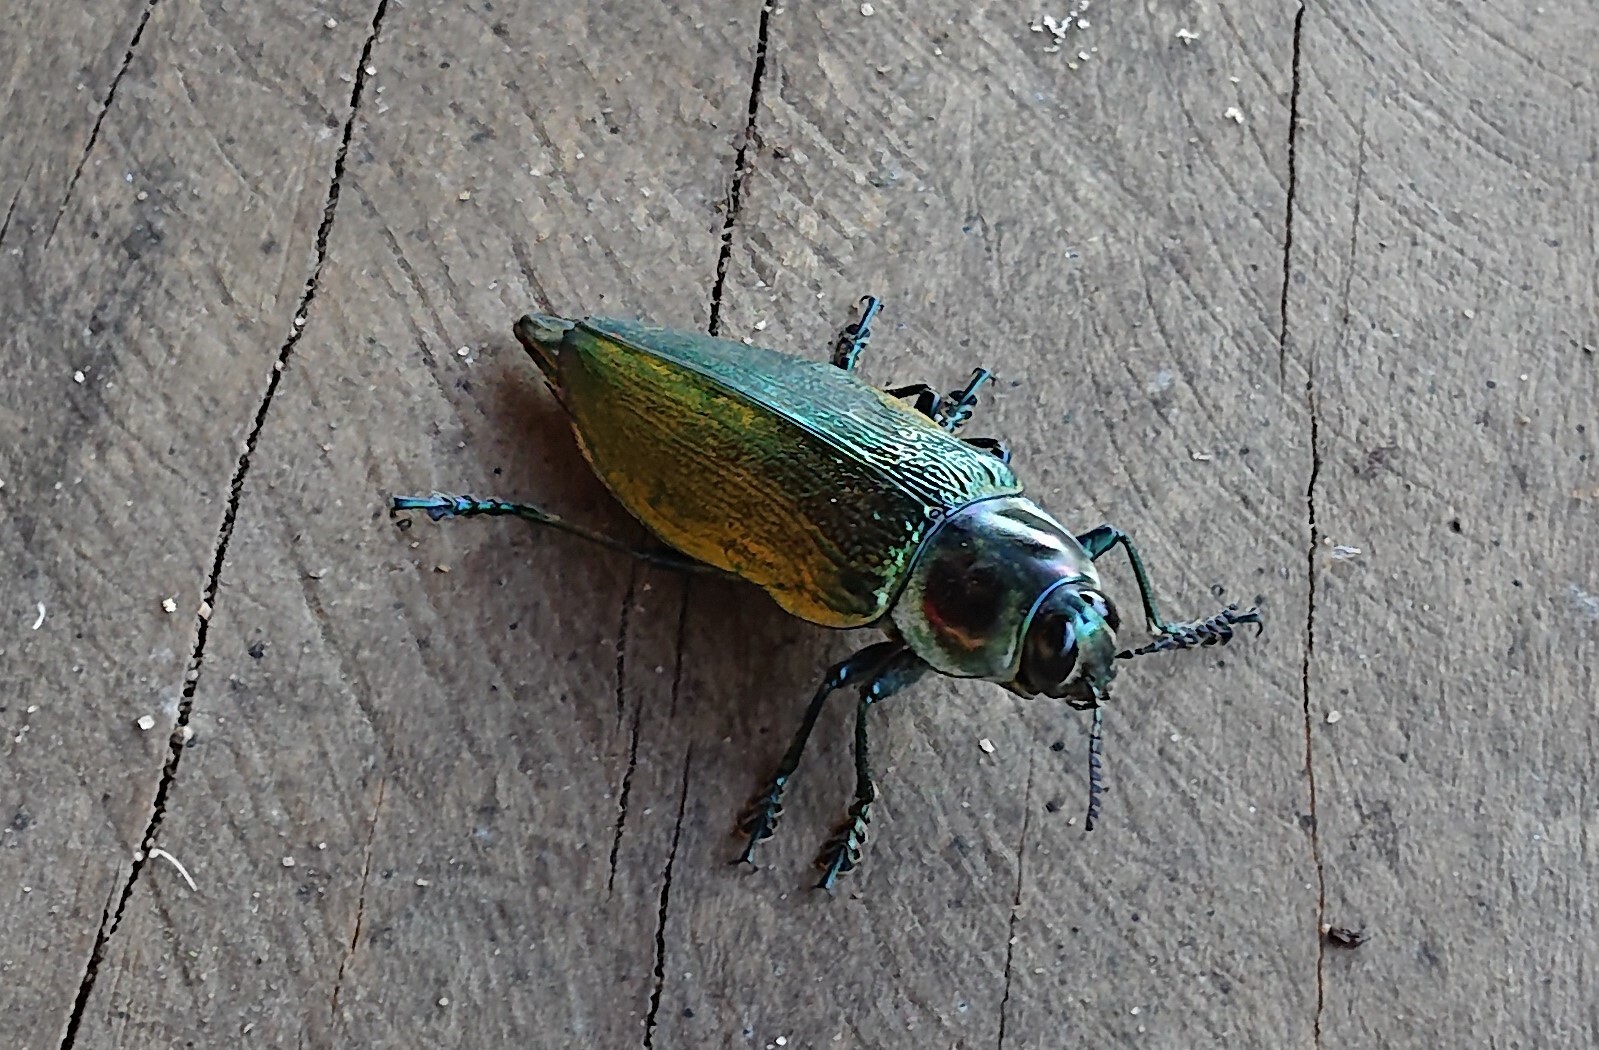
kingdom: Animalia
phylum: Arthropoda
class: Insecta
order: Coleoptera
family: Buprestidae
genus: Euchroma
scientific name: Euchroma giganteum
